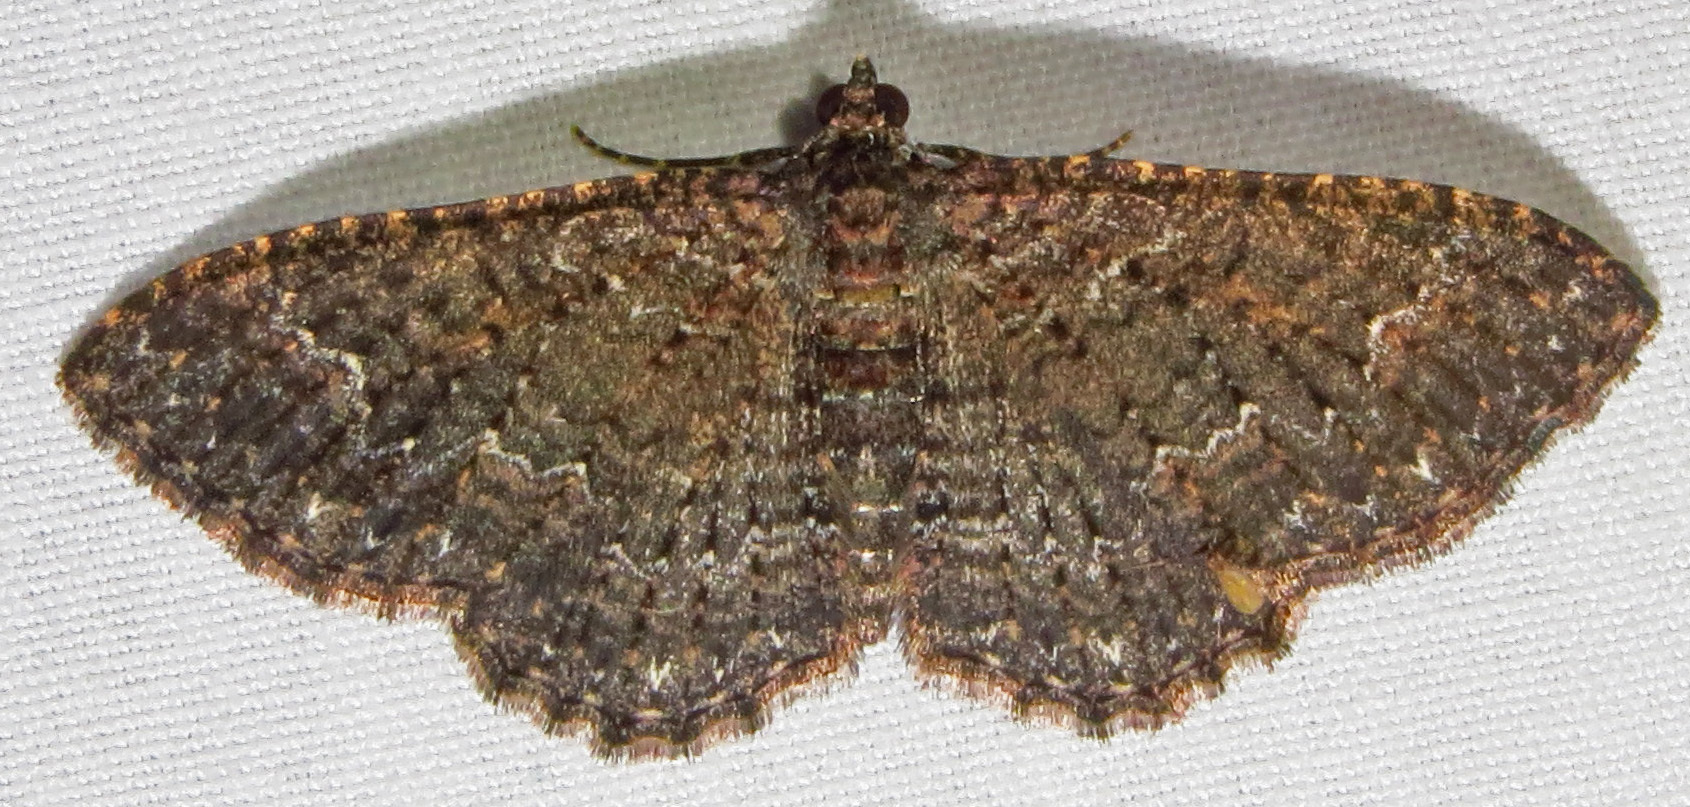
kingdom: Animalia
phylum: Arthropoda
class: Insecta
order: Lepidoptera
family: Geometridae
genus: Disclisioprocta
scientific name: Disclisioprocta stellata
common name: Somber carpet
